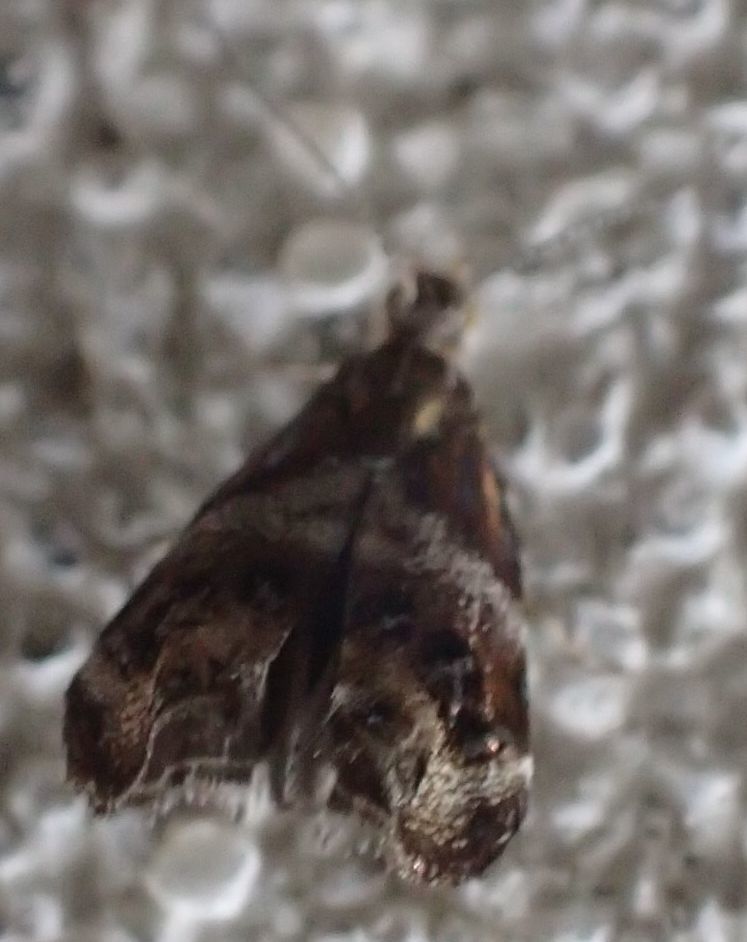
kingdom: Animalia
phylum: Arthropoda
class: Insecta
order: Lepidoptera
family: Choreutidae
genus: Tebenna
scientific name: Tebenna micalis
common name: Vagrant twitcher
